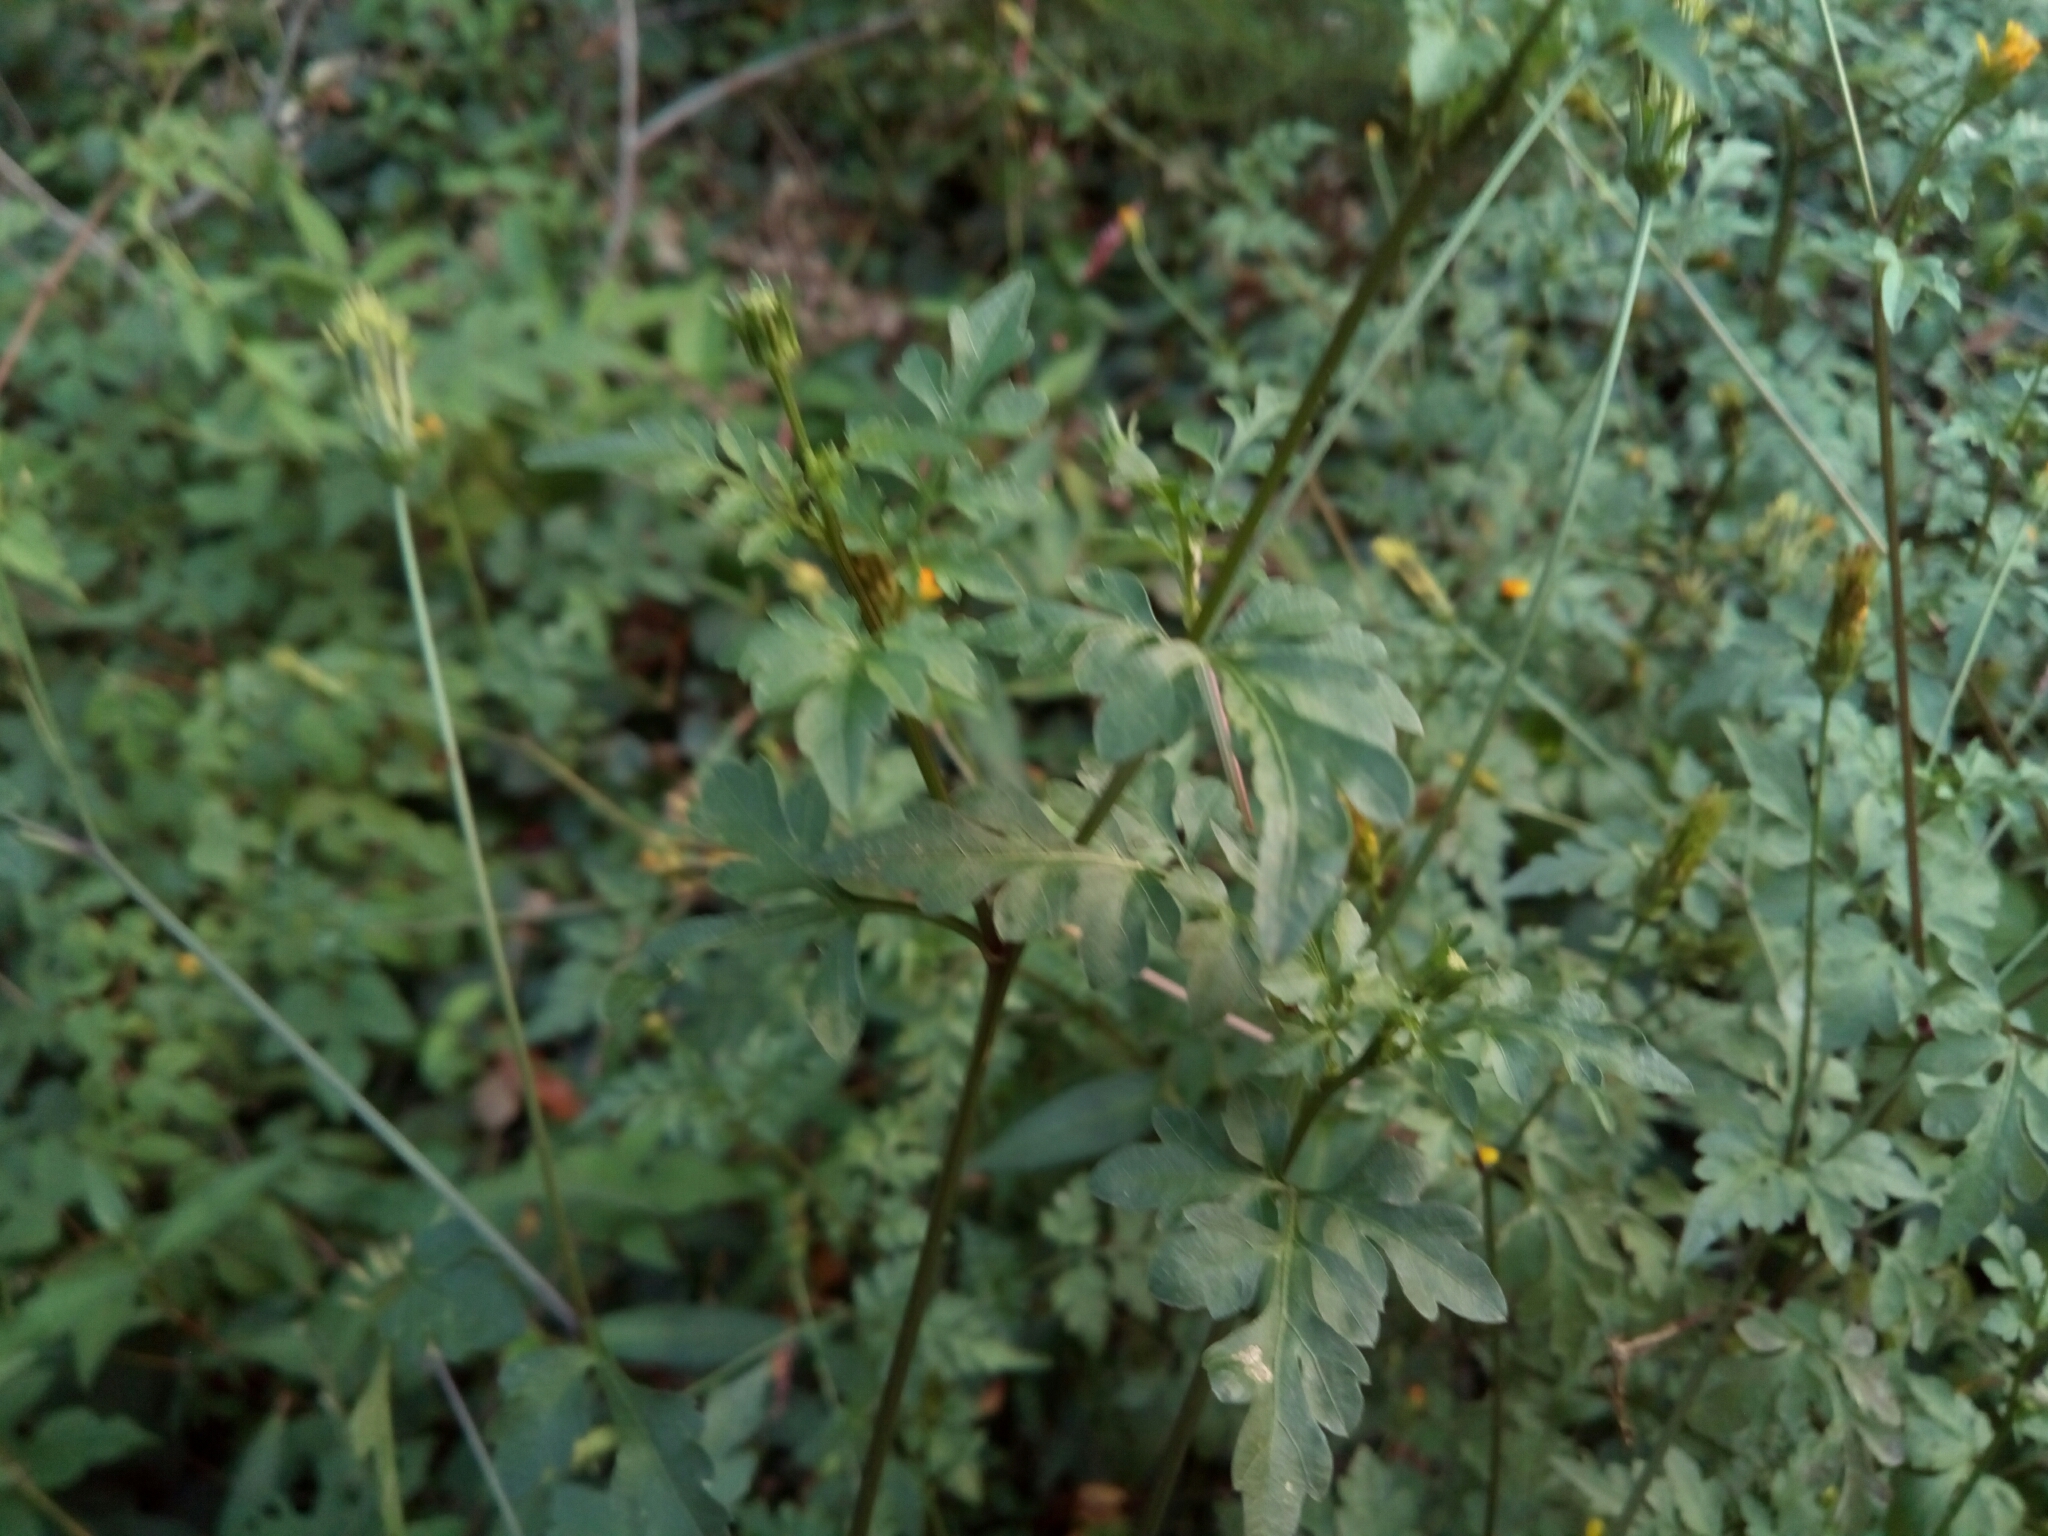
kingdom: Plantae
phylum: Tracheophyta
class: Magnoliopsida
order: Asterales
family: Asteraceae
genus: Bidens
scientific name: Bidens bipinnata
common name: Spanish-needles
